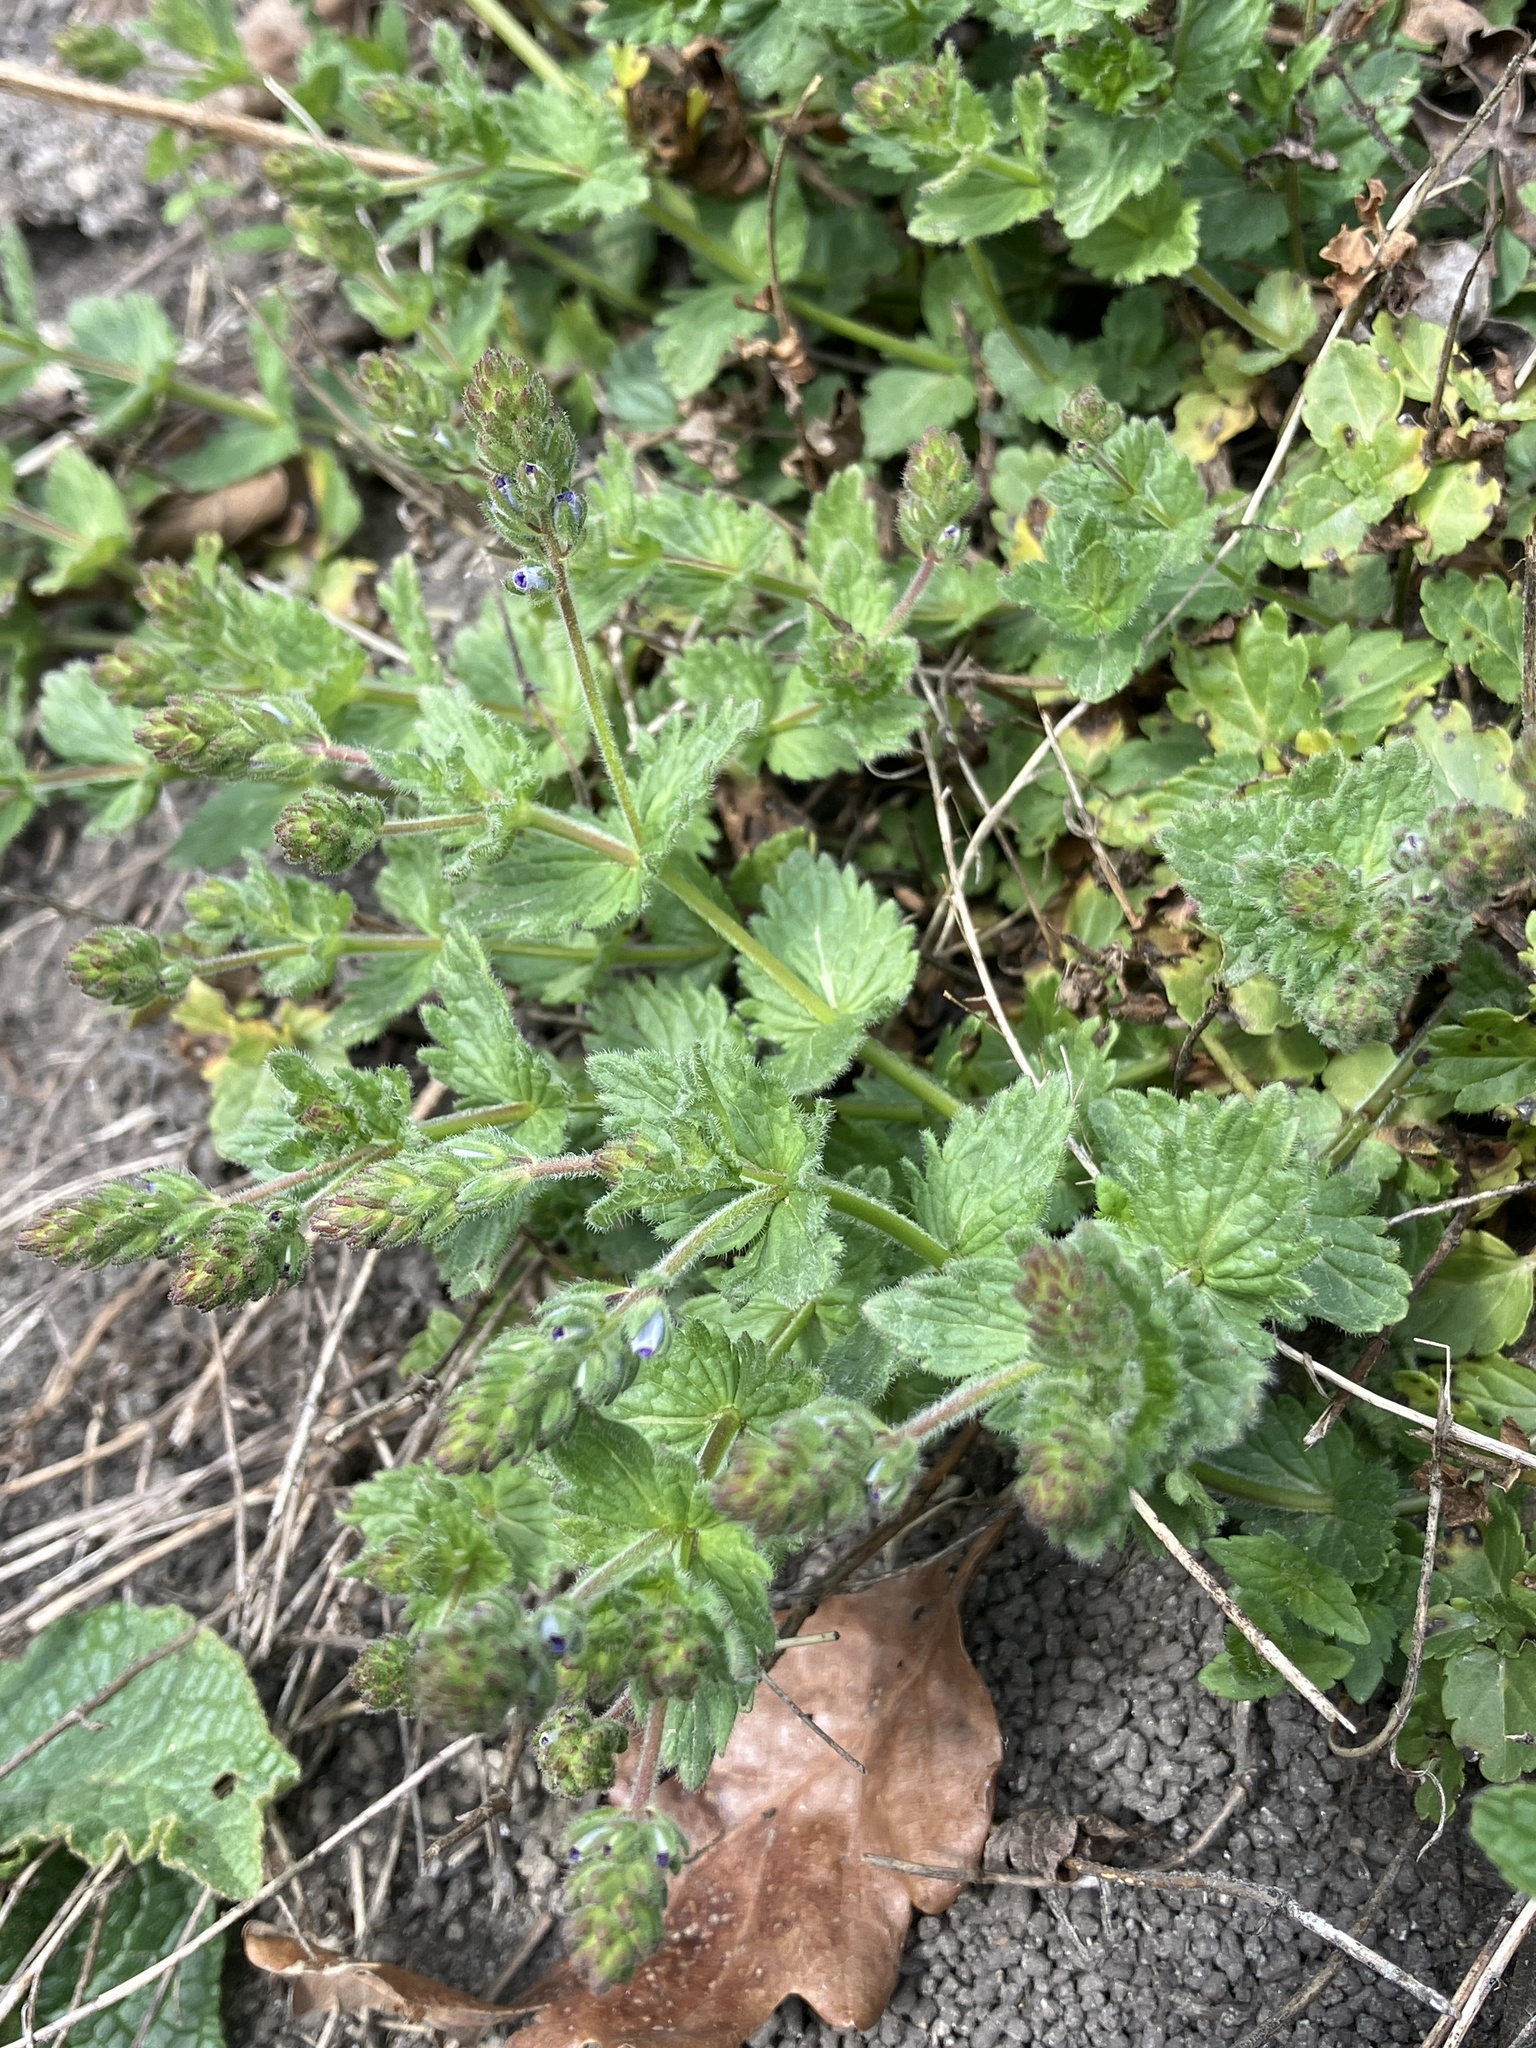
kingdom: Plantae
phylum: Tracheophyta
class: Magnoliopsida
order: Lamiales
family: Plantaginaceae
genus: Veronica
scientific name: Veronica chamaedrys
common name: Germander speedwell
